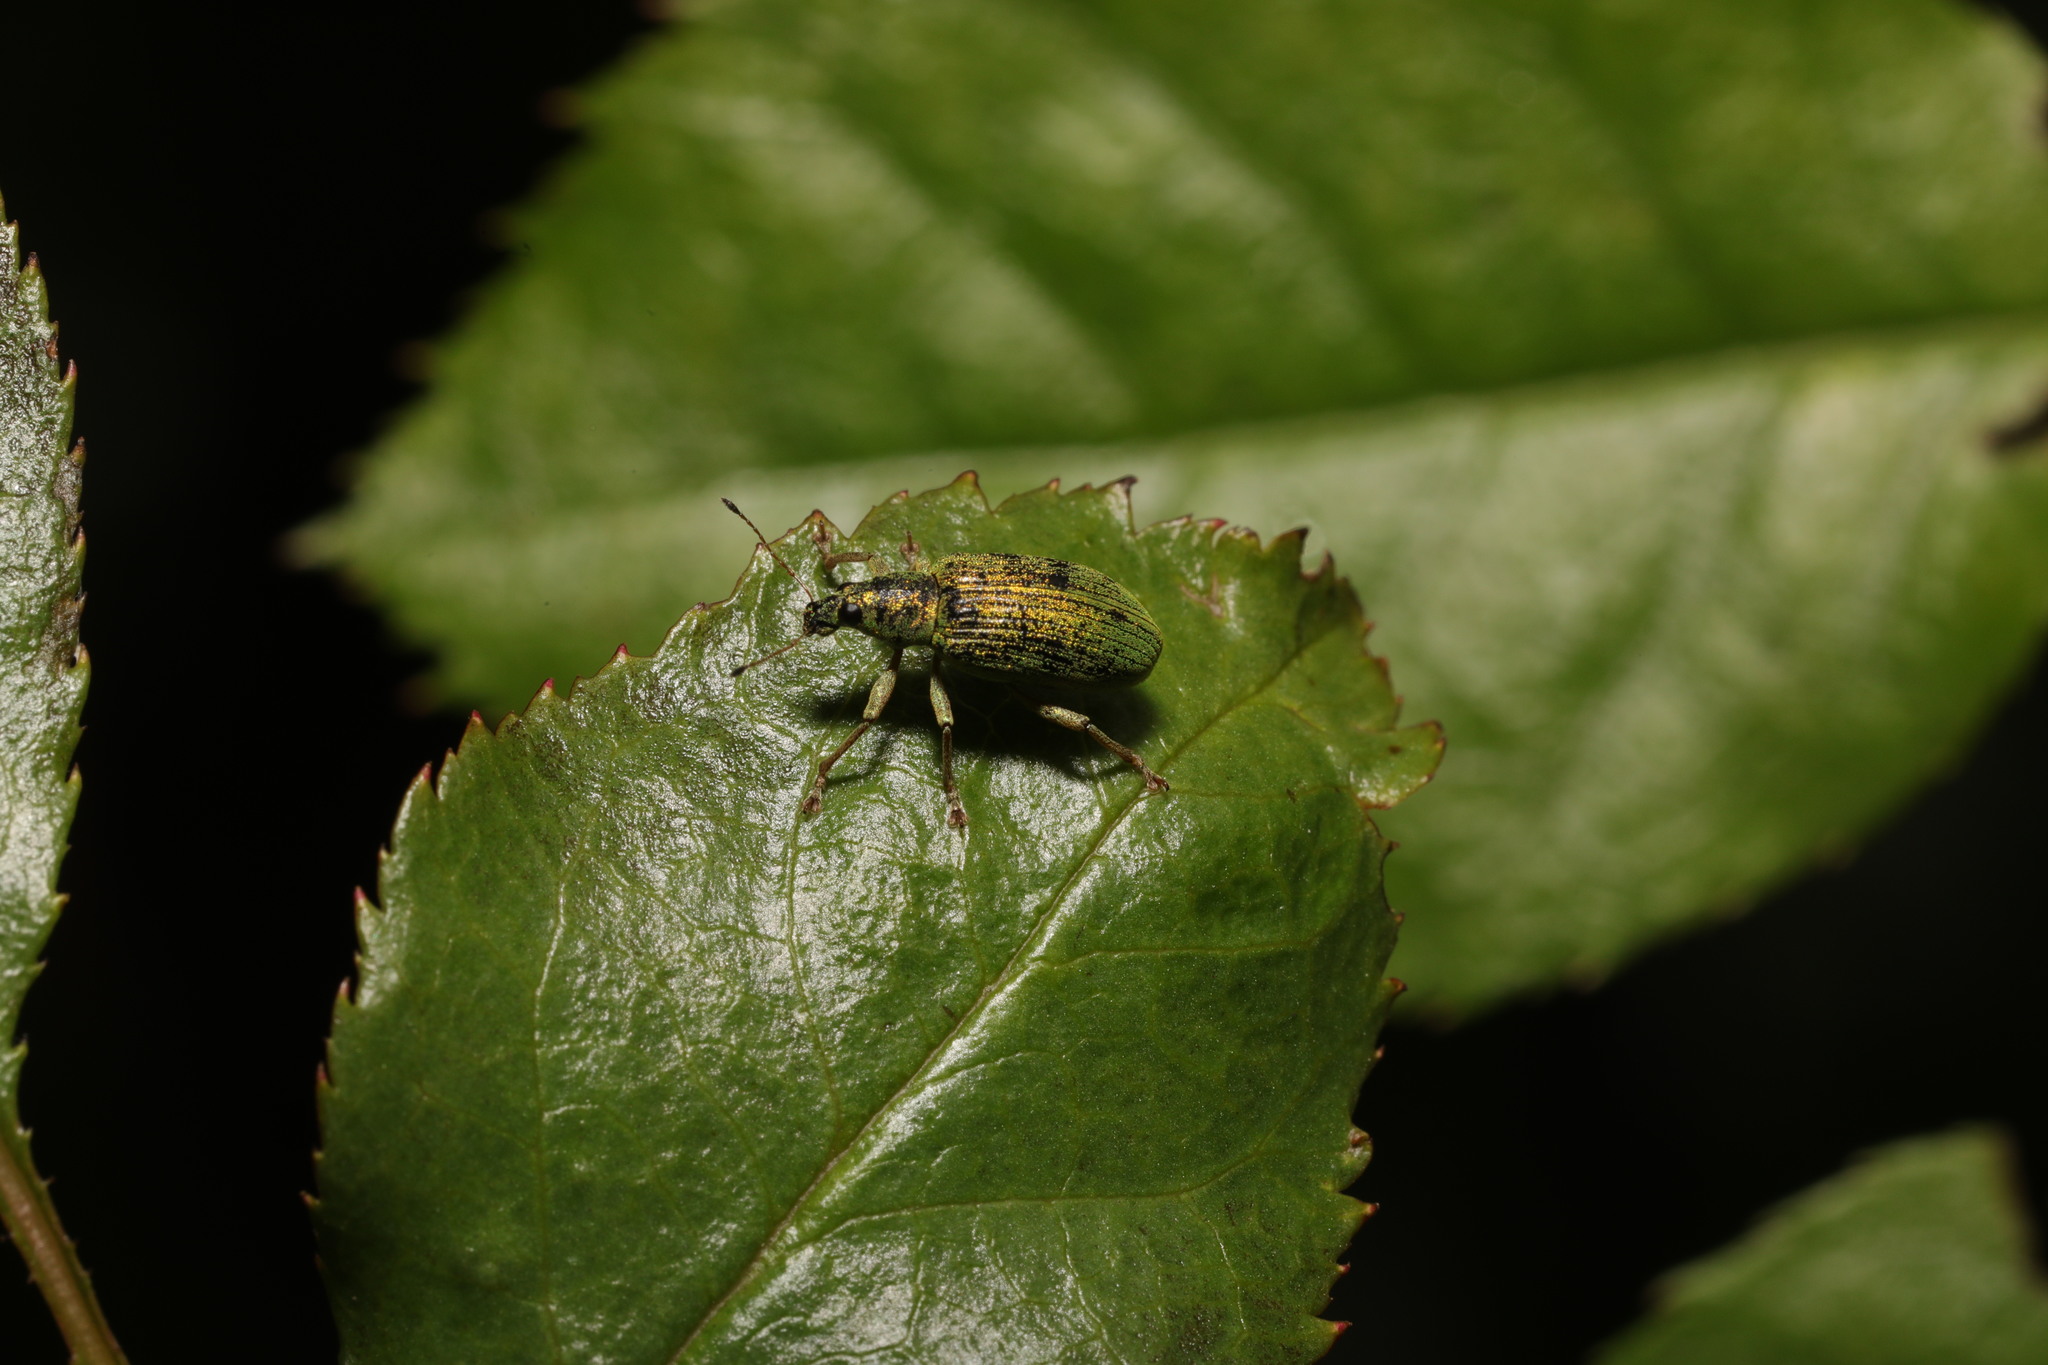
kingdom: Animalia
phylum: Arthropoda
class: Insecta
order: Coleoptera
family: Curculionidae
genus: Polydrusus
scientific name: Polydrusus formosus
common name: Weevil
